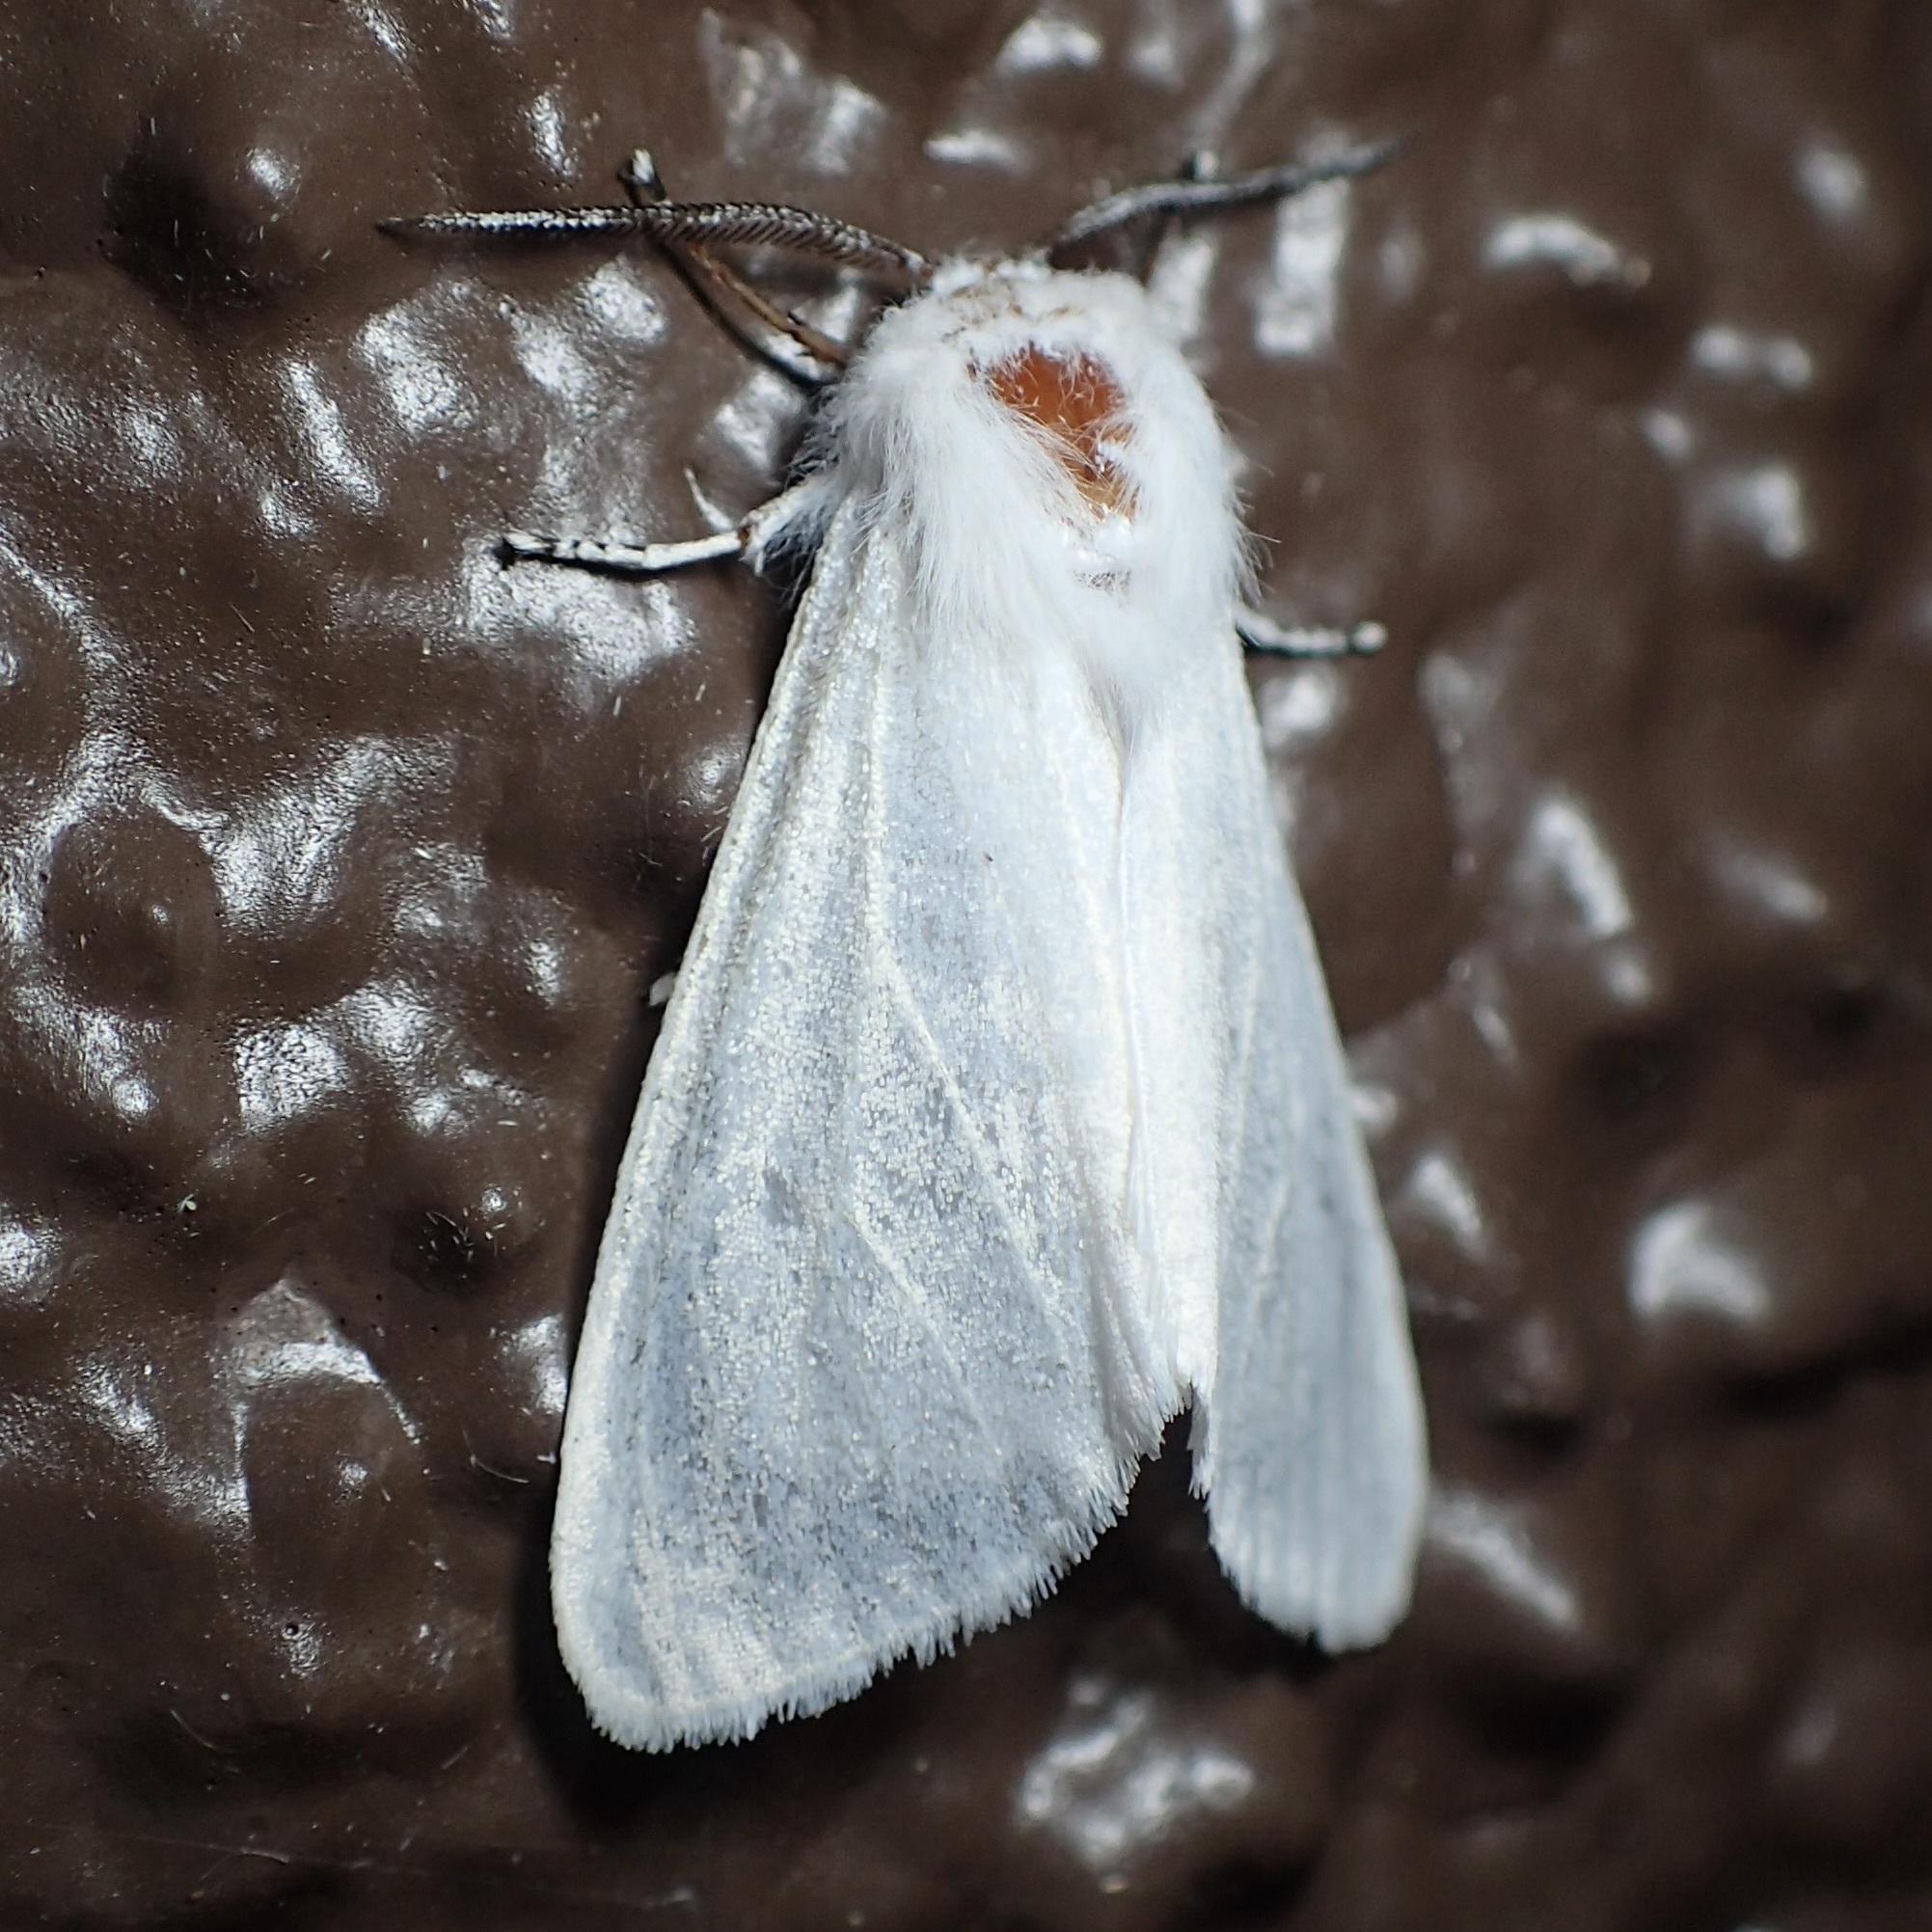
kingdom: Animalia
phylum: Arthropoda
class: Insecta
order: Lepidoptera
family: Erebidae
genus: Hyphantria
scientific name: Hyphantria cunea
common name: American white moth
